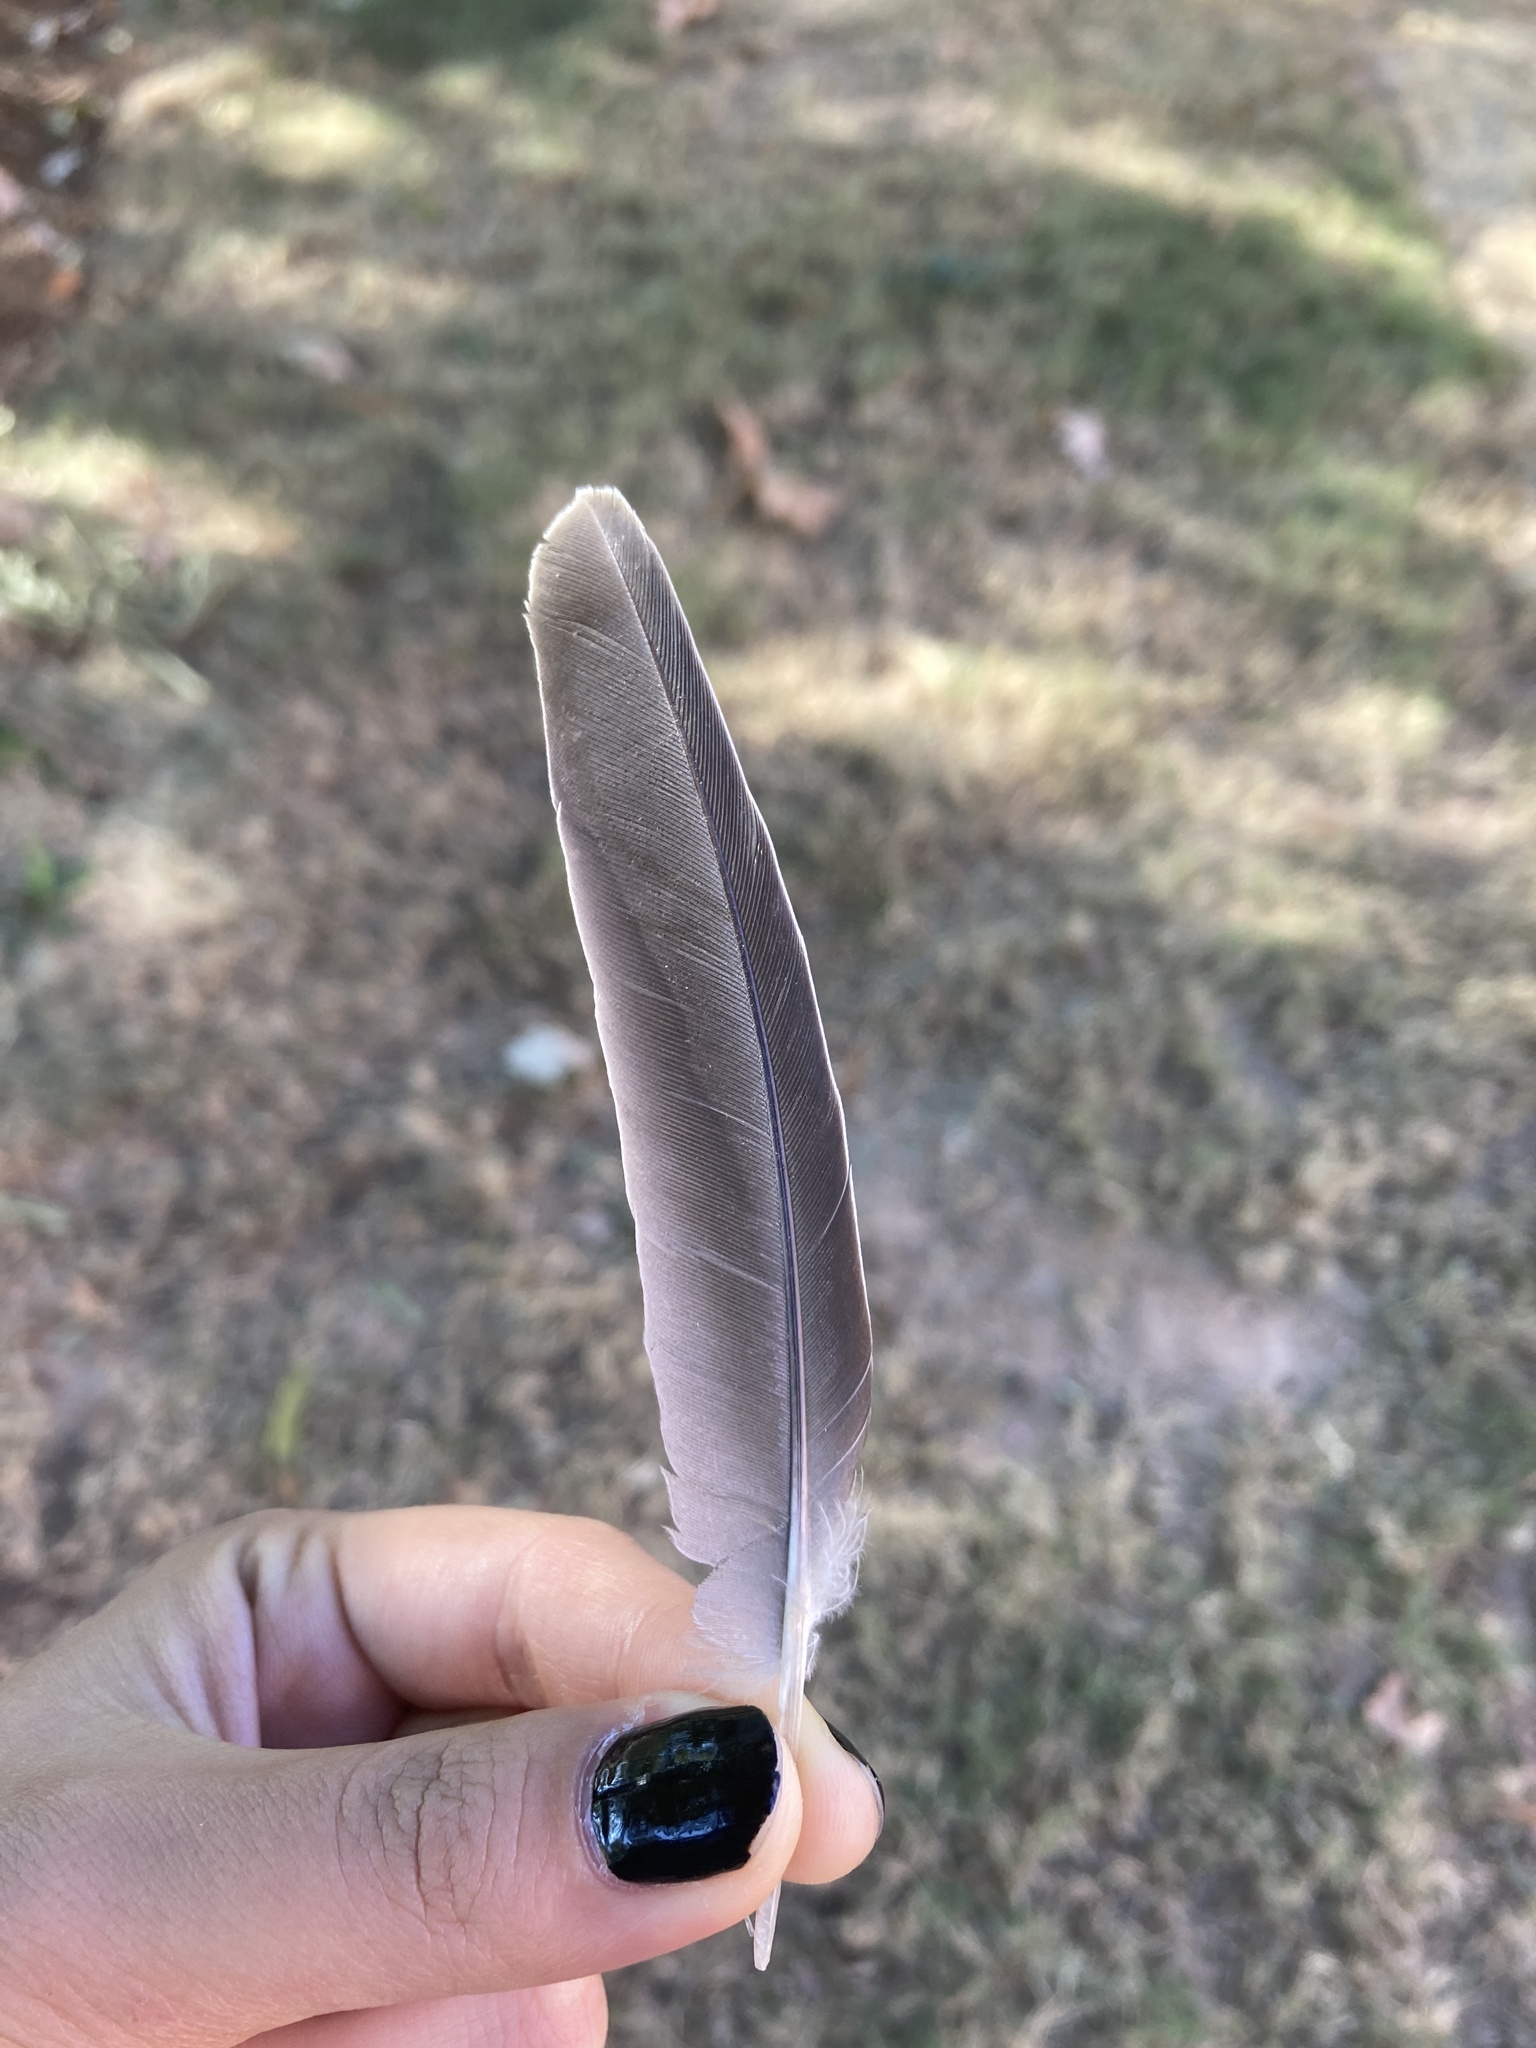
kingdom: Animalia
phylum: Chordata
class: Aves
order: Columbiformes
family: Columbidae
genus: Zenaida
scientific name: Zenaida macroura
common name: Mourning dove
